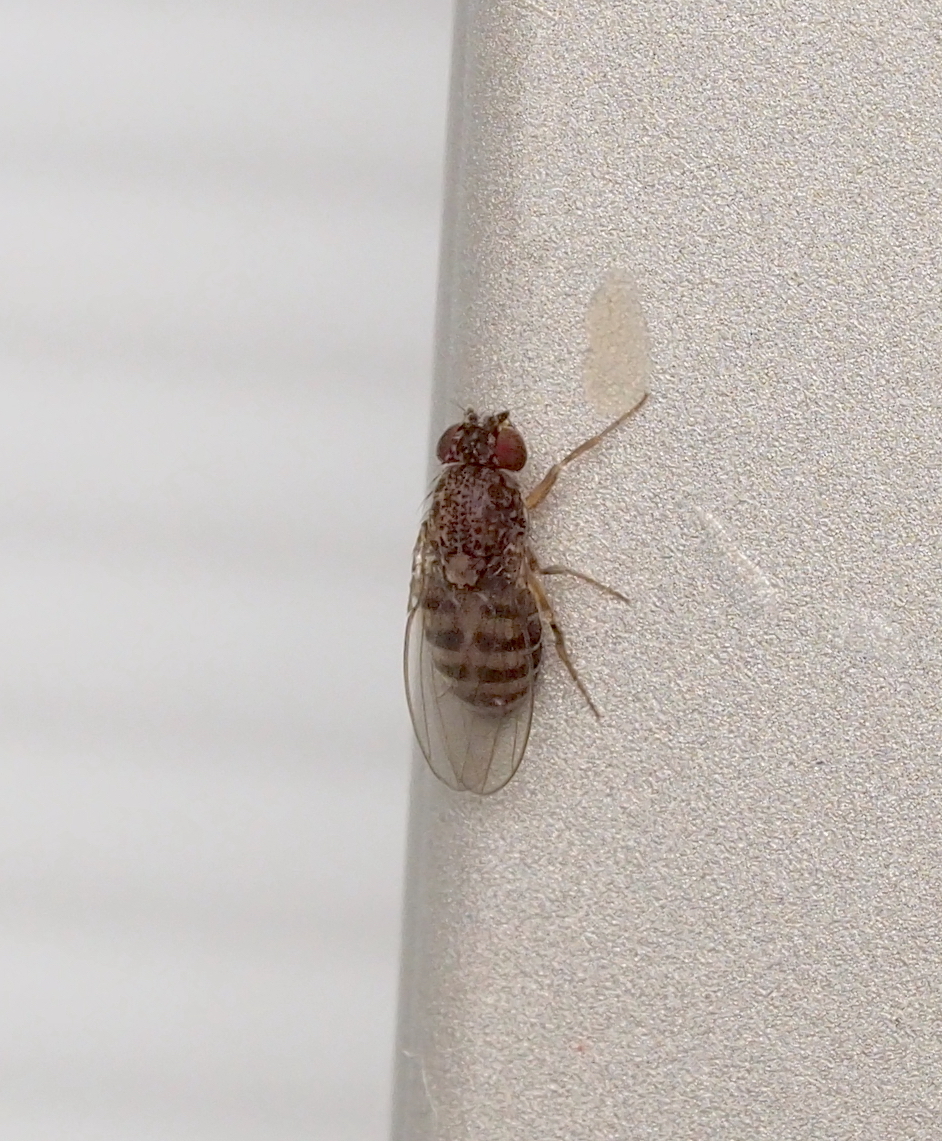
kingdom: Animalia
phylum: Arthropoda
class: Insecta
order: Diptera
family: Drosophilidae
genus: Drosophila
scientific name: Drosophila hydei
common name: Pomace fly
